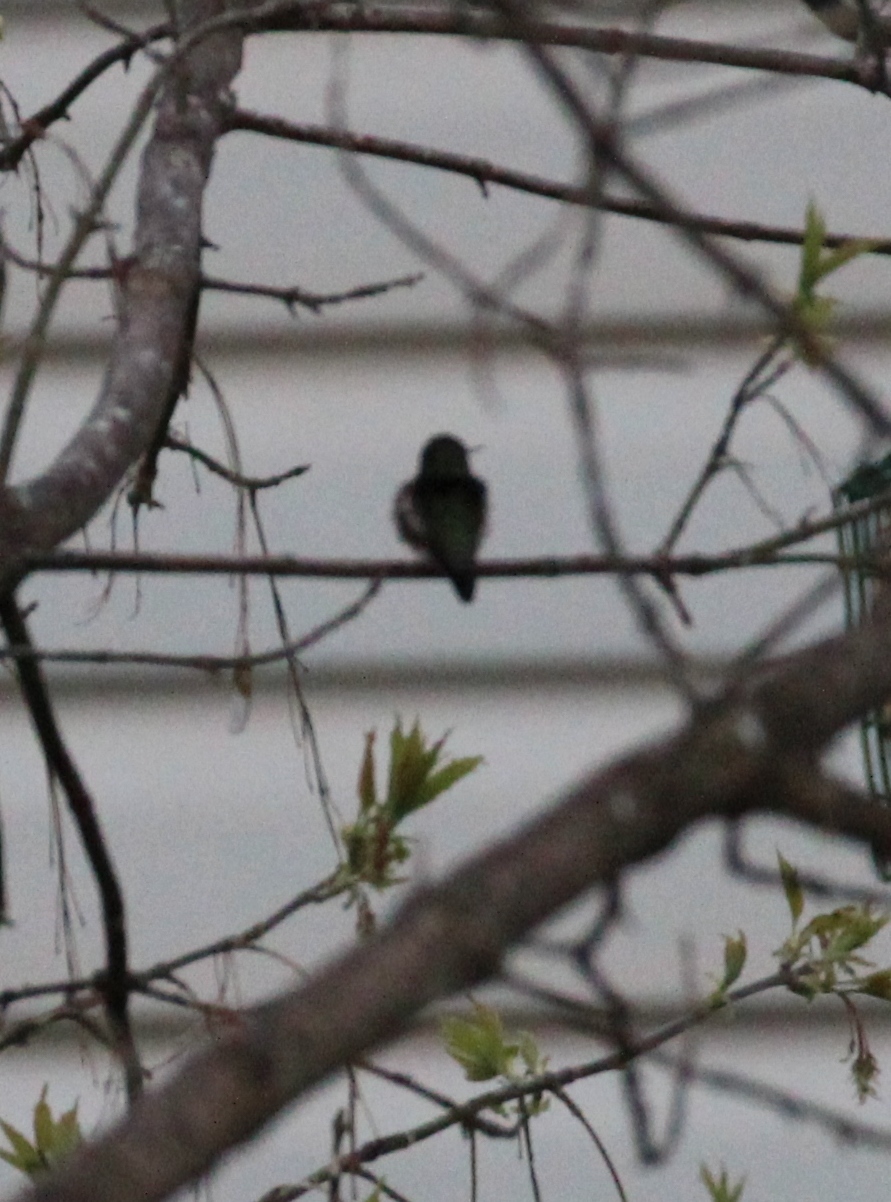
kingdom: Animalia
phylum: Chordata
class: Aves
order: Apodiformes
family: Trochilidae
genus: Archilochus
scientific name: Archilochus colubris
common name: Ruby-throated hummingbird
